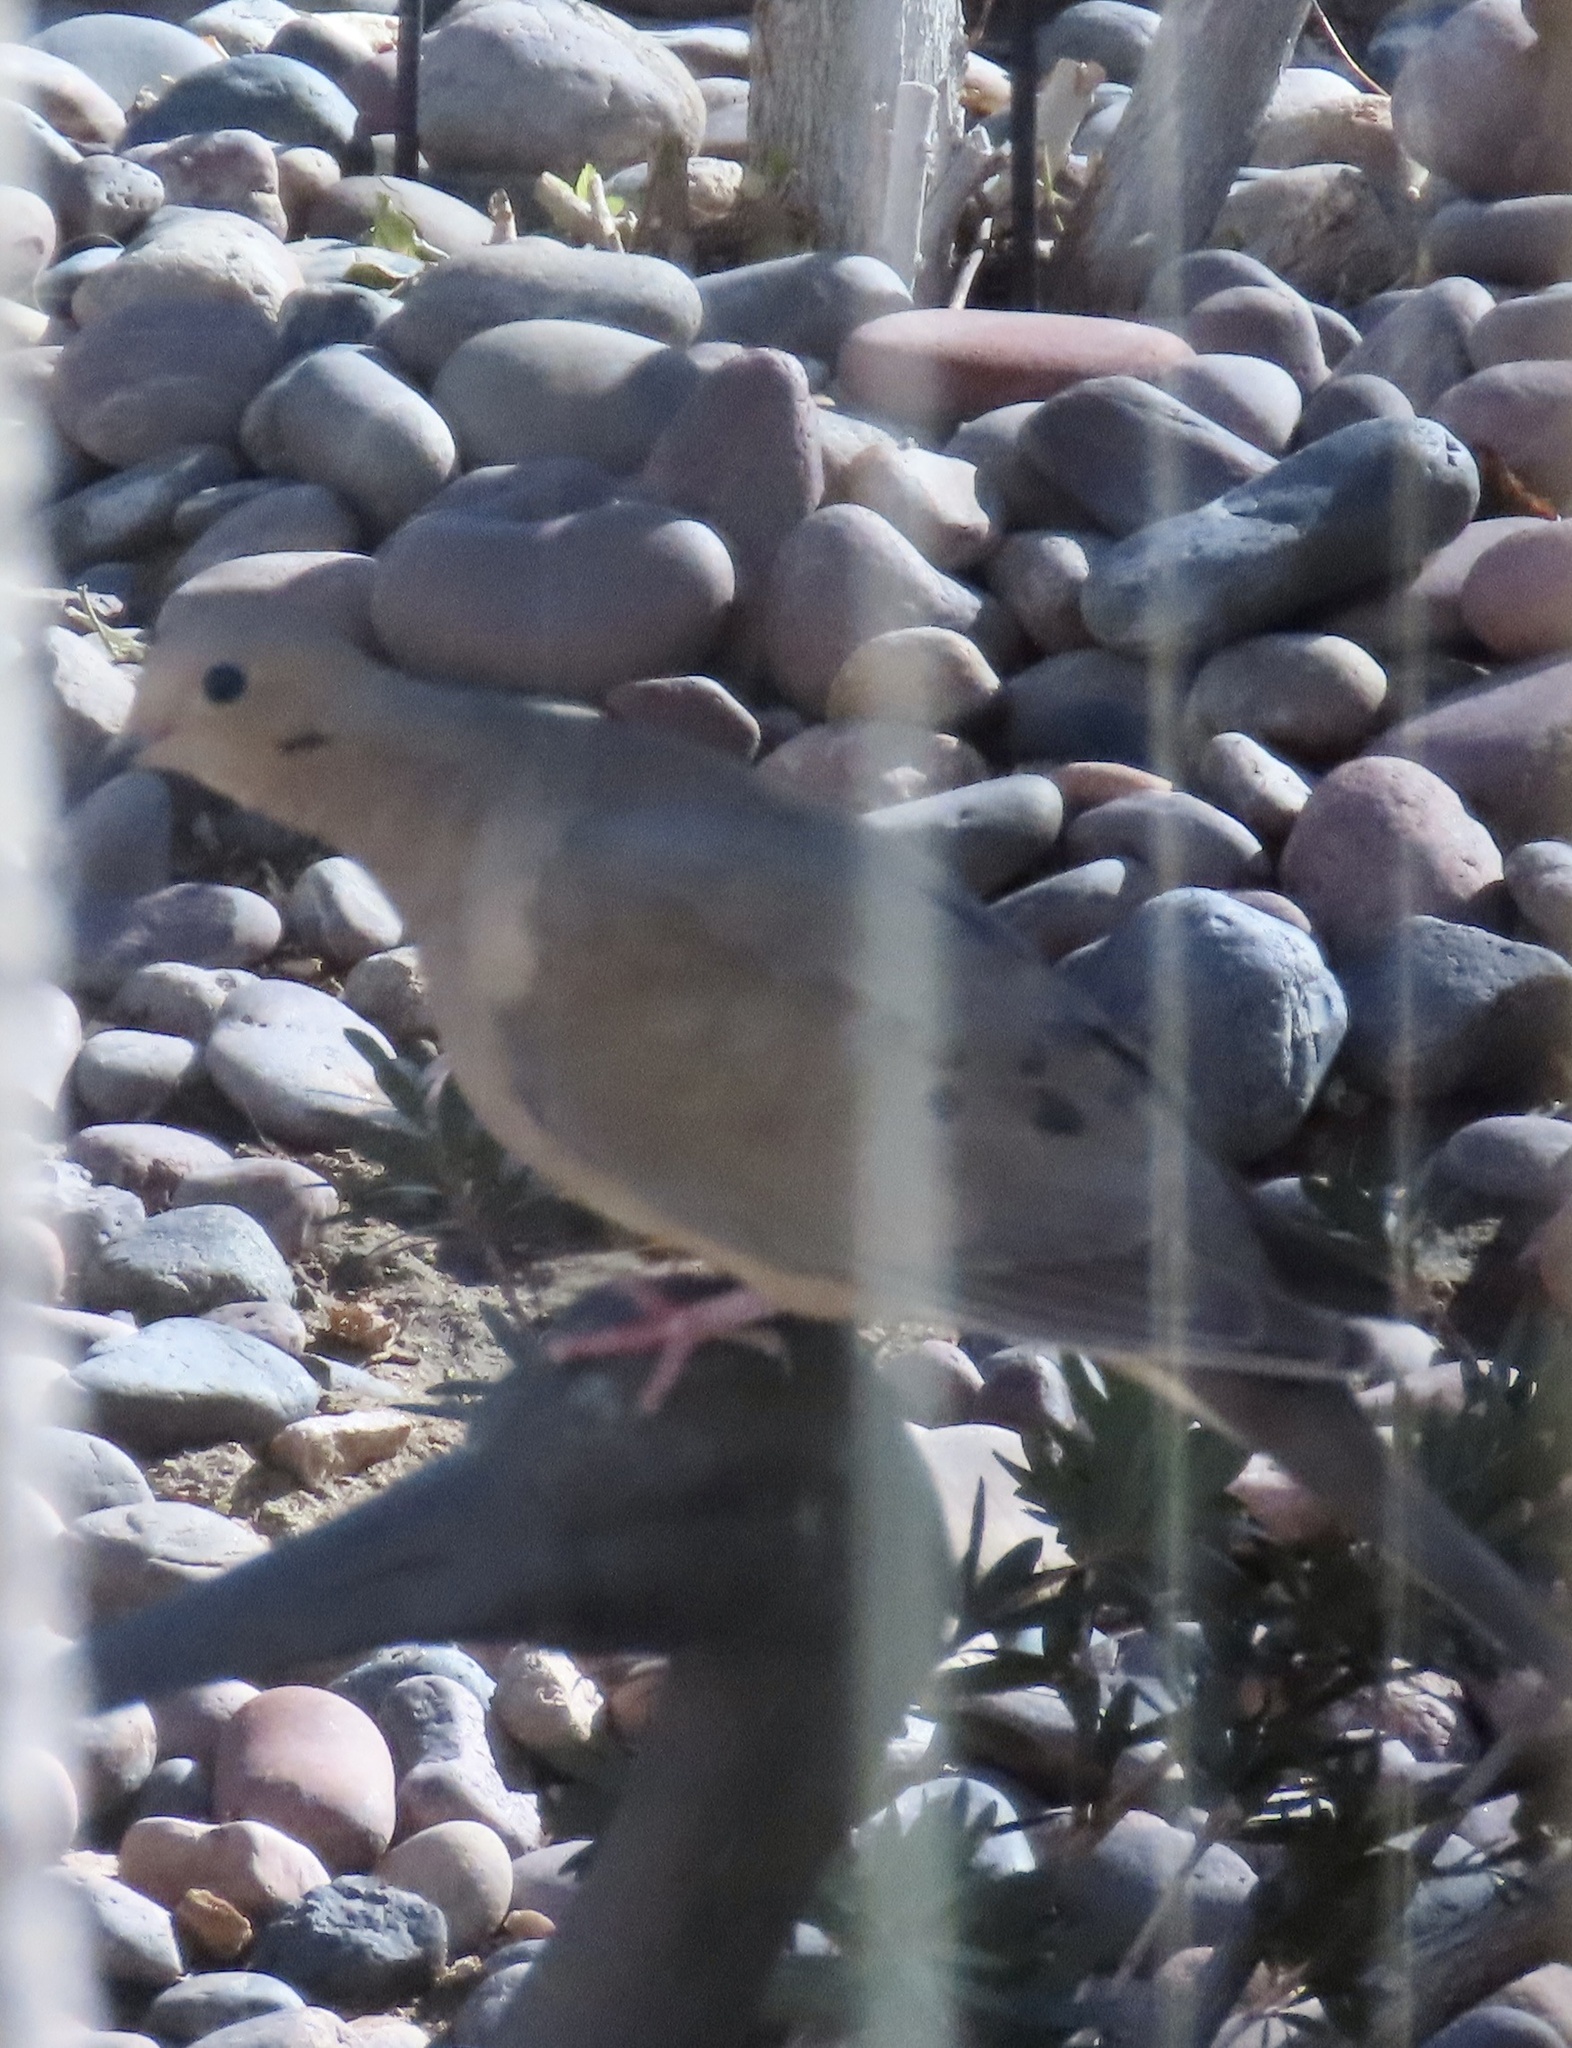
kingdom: Animalia
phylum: Chordata
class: Aves
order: Columbiformes
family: Columbidae
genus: Zenaida
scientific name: Zenaida macroura
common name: Mourning dove
